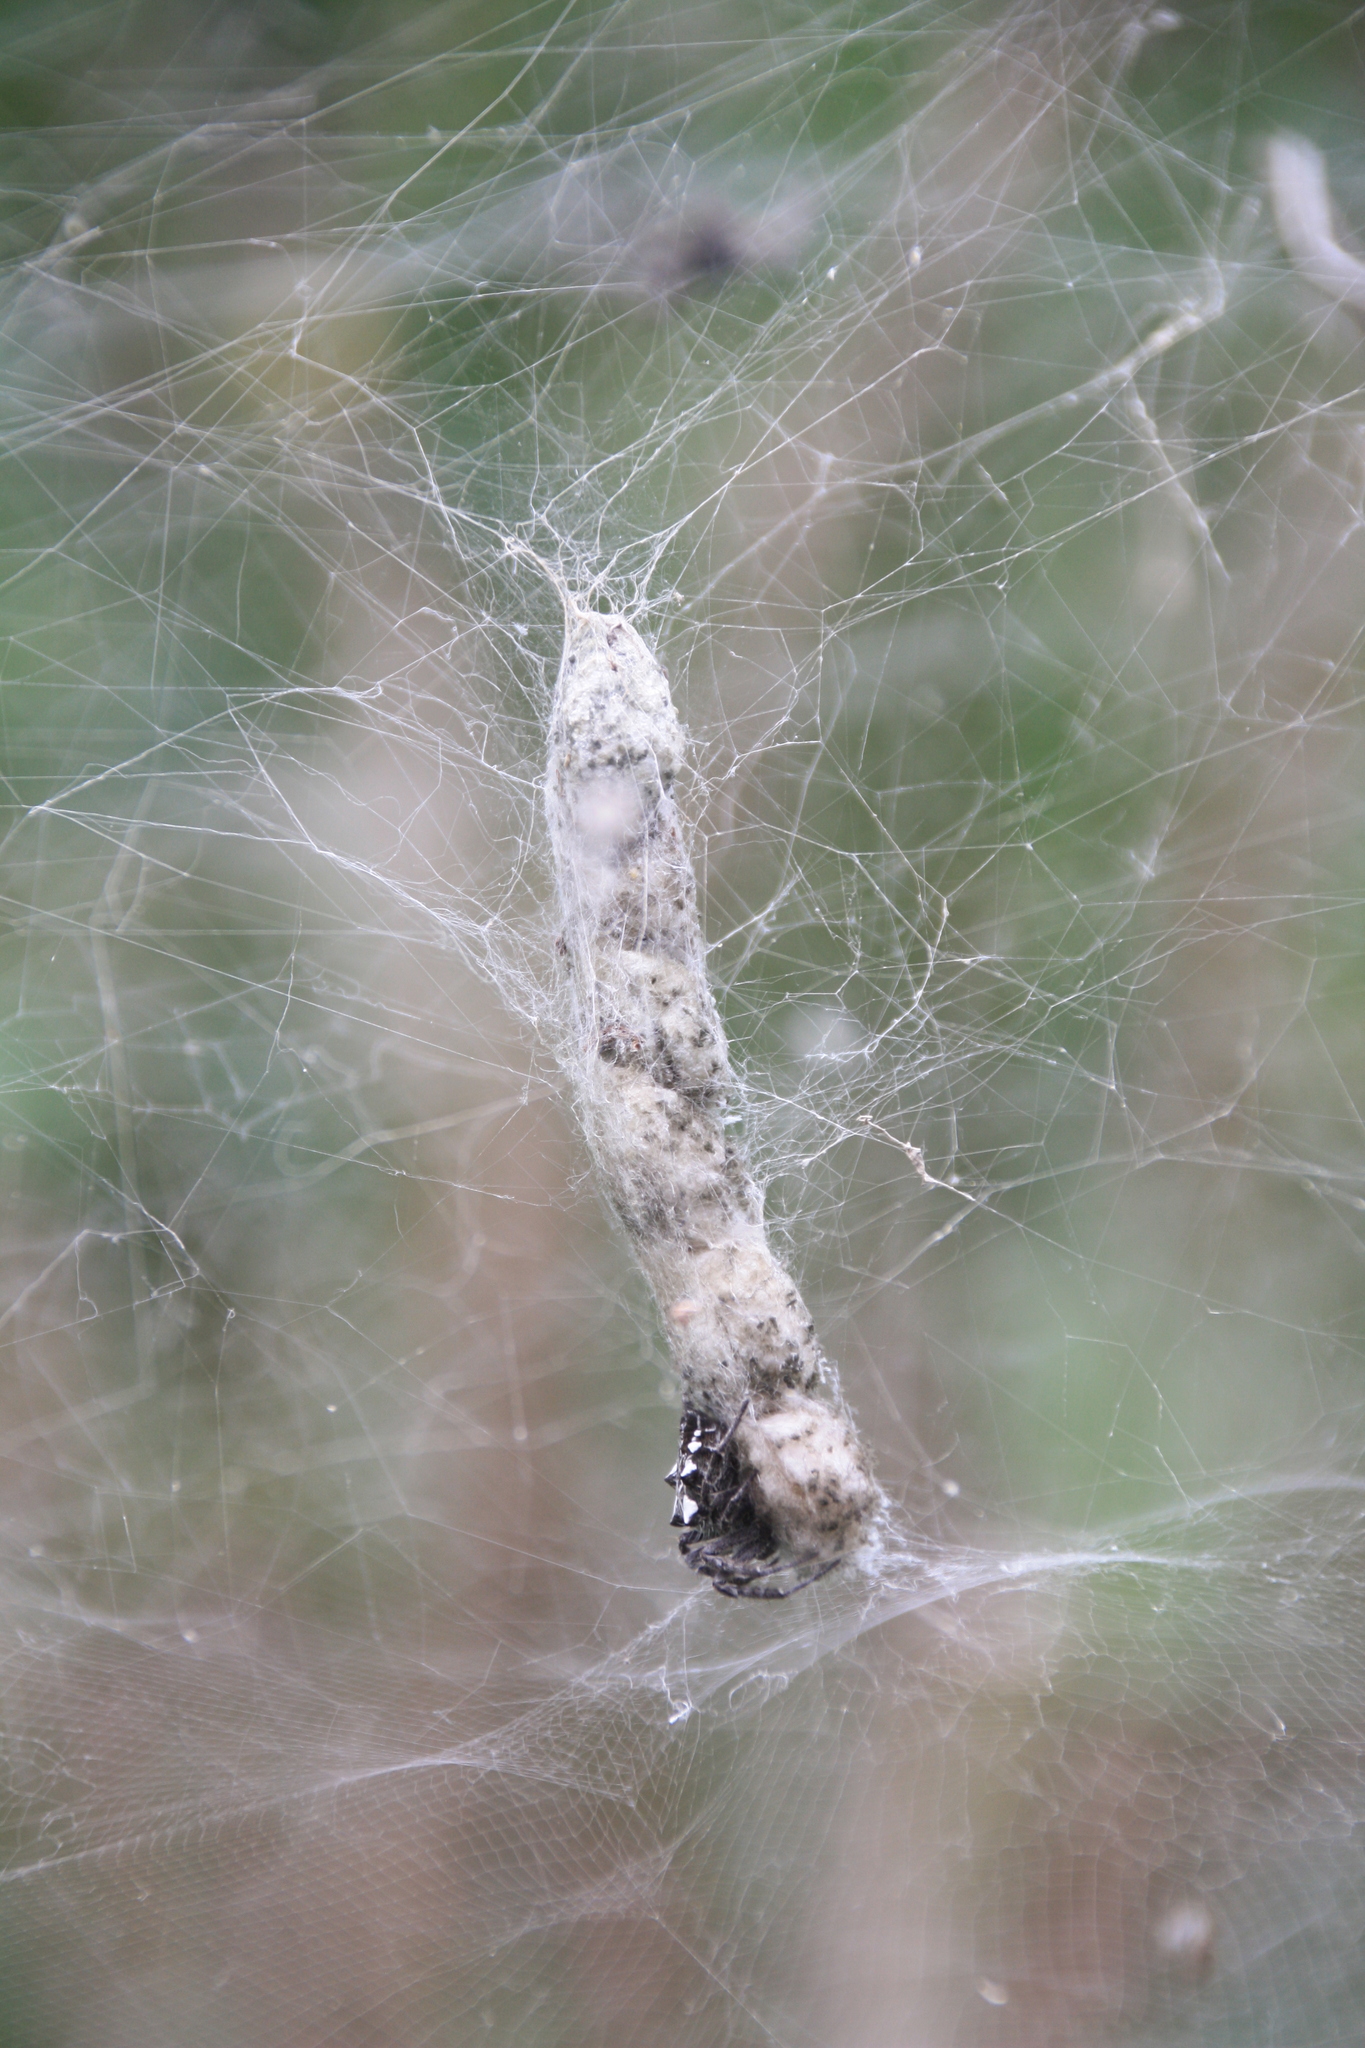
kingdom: Animalia
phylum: Arthropoda
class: Arachnida
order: Araneae
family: Araneidae
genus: Cyrtophora
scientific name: Cyrtophora citricola
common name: Orb weavers
